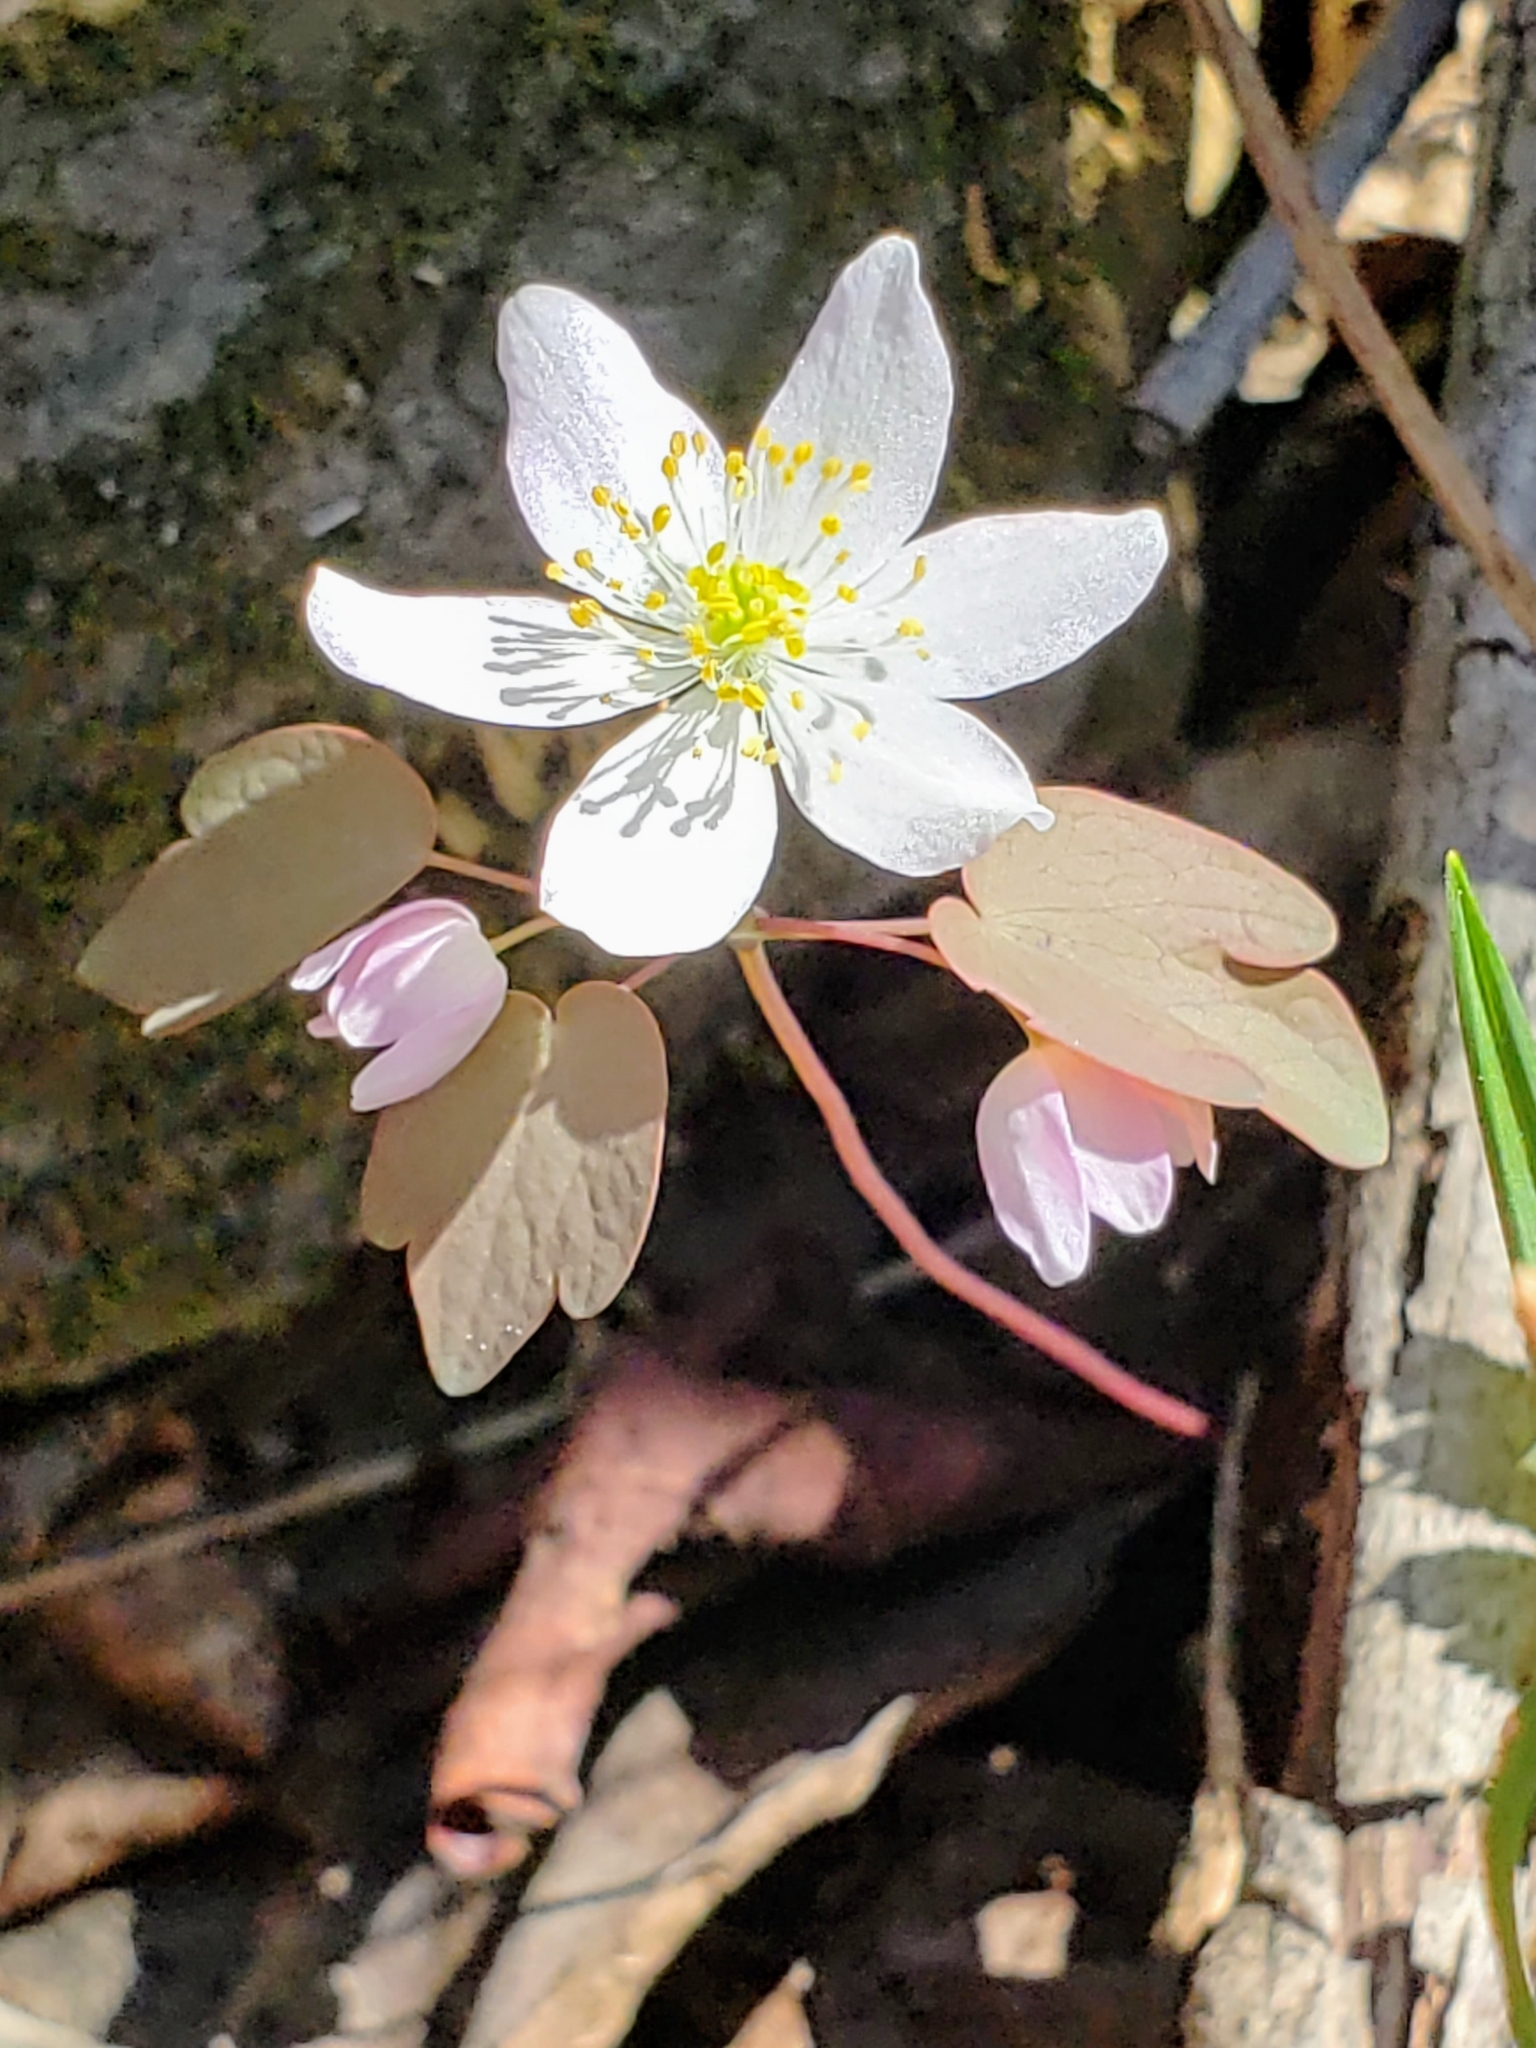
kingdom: Plantae
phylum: Tracheophyta
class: Magnoliopsida
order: Ranunculales
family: Ranunculaceae
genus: Thalictrum
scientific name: Thalictrum thalictroides
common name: Rue-anemone
